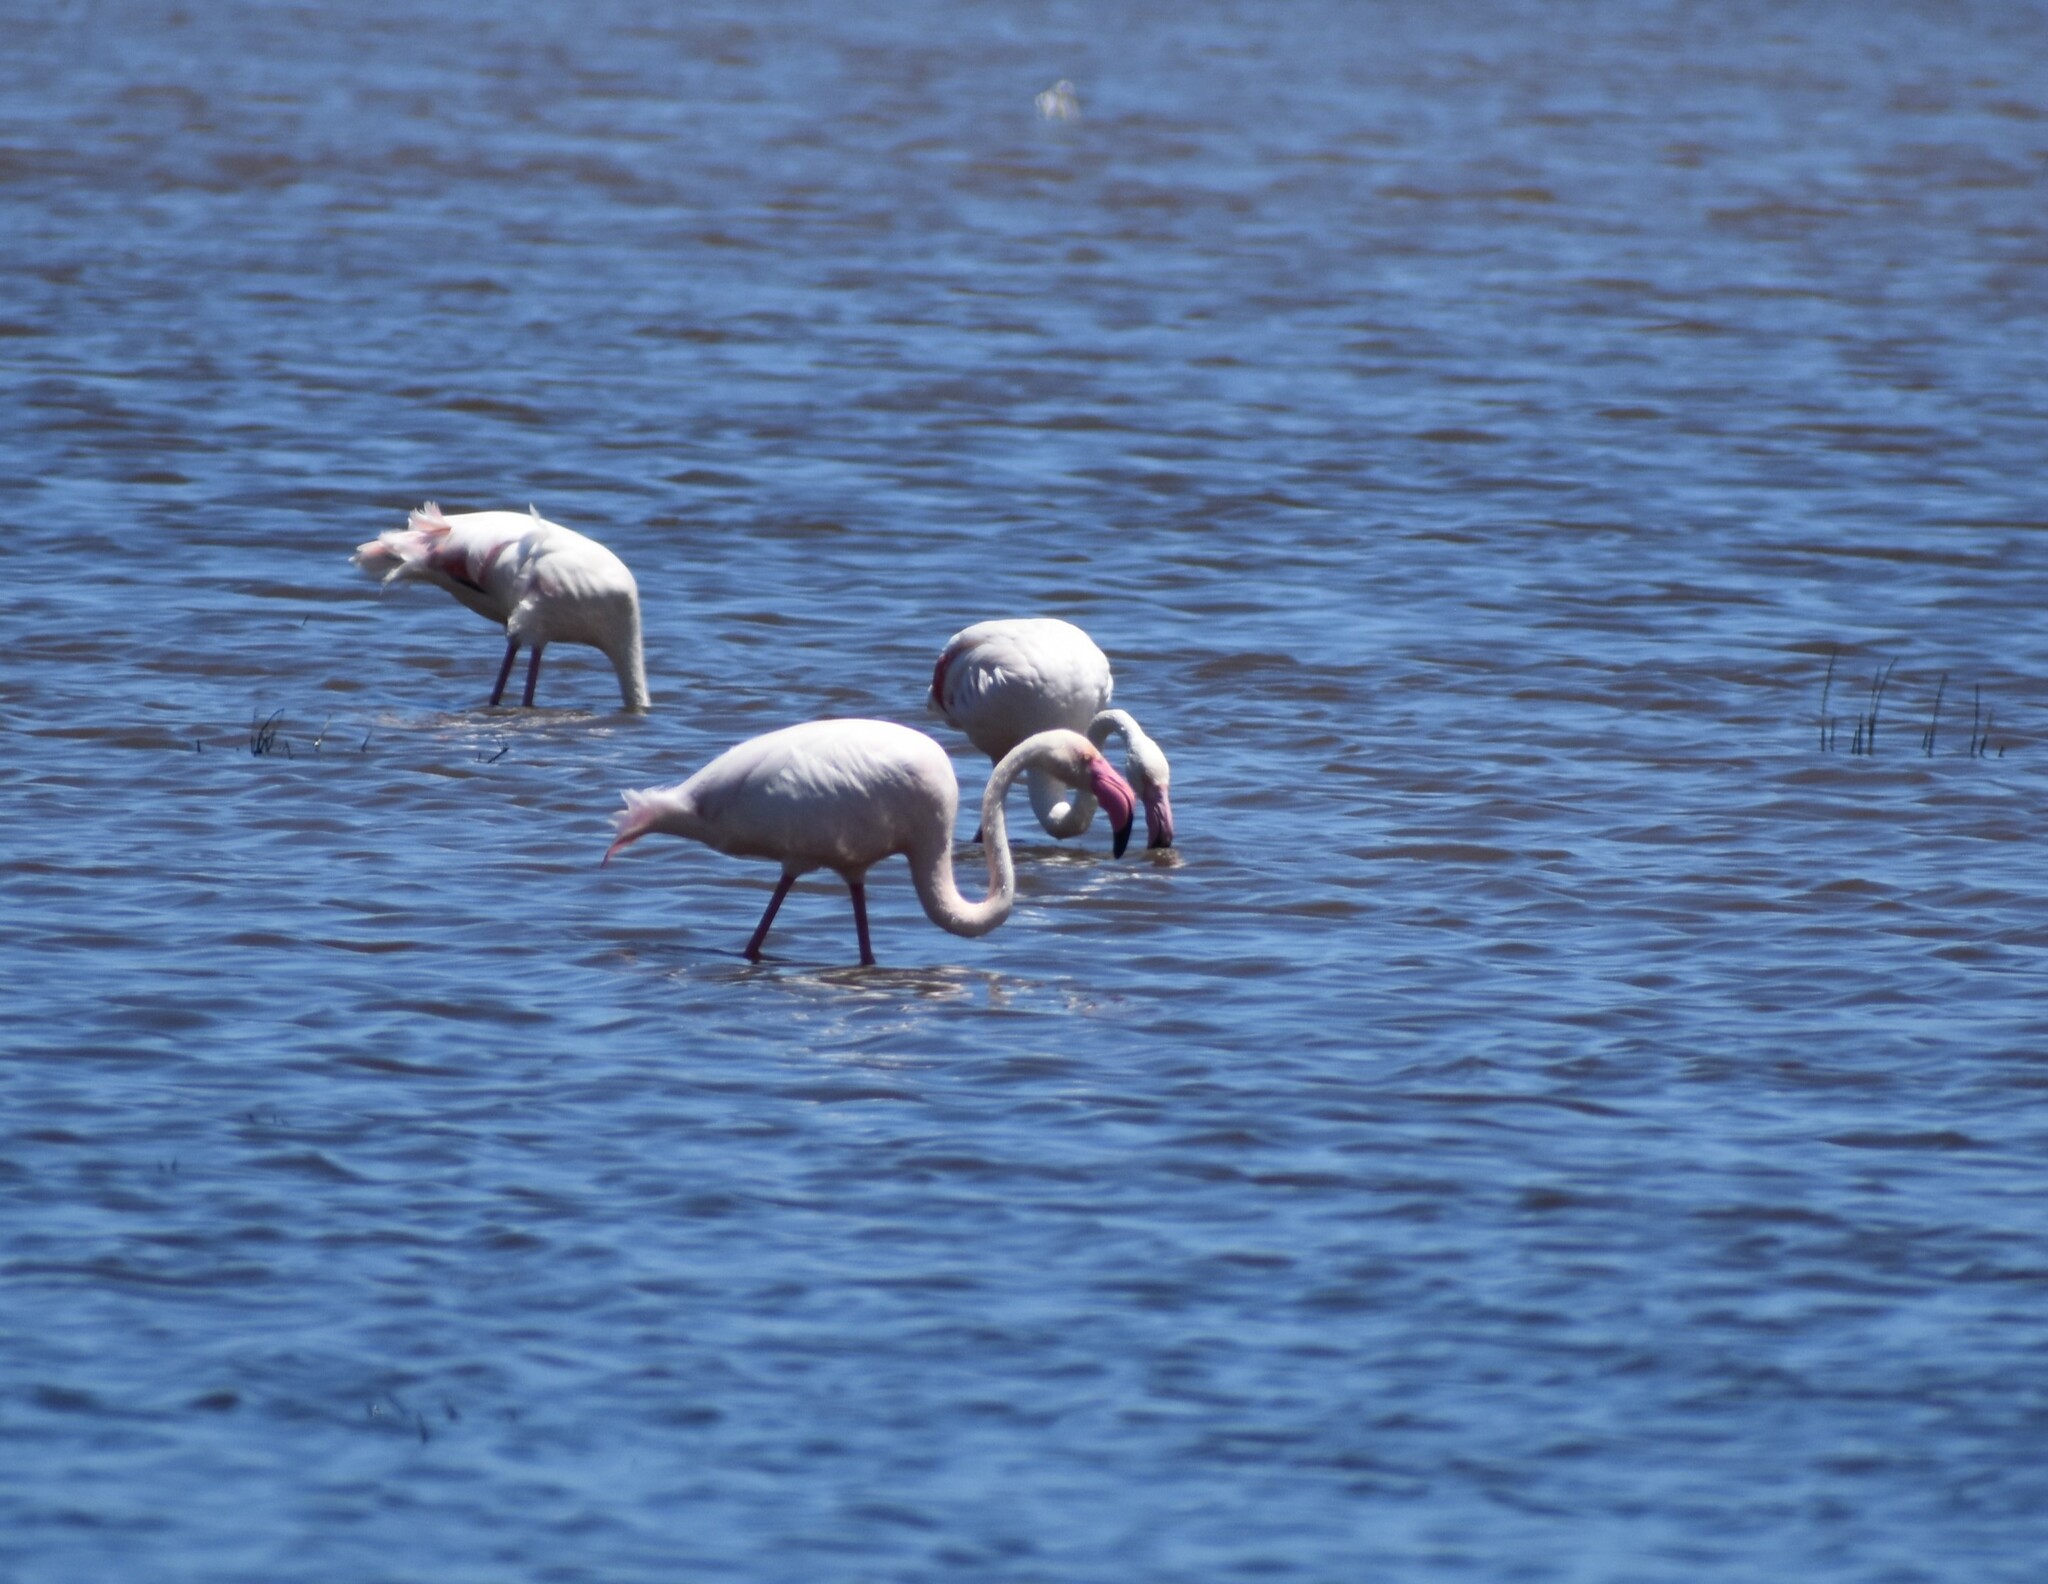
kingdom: Animalia
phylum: Chordata
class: Aves
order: Phoenicopteriformes
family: Phoenicopteridae
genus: Phoenicopterus
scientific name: Phoenicopterus roseus
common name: Greater flamingo
